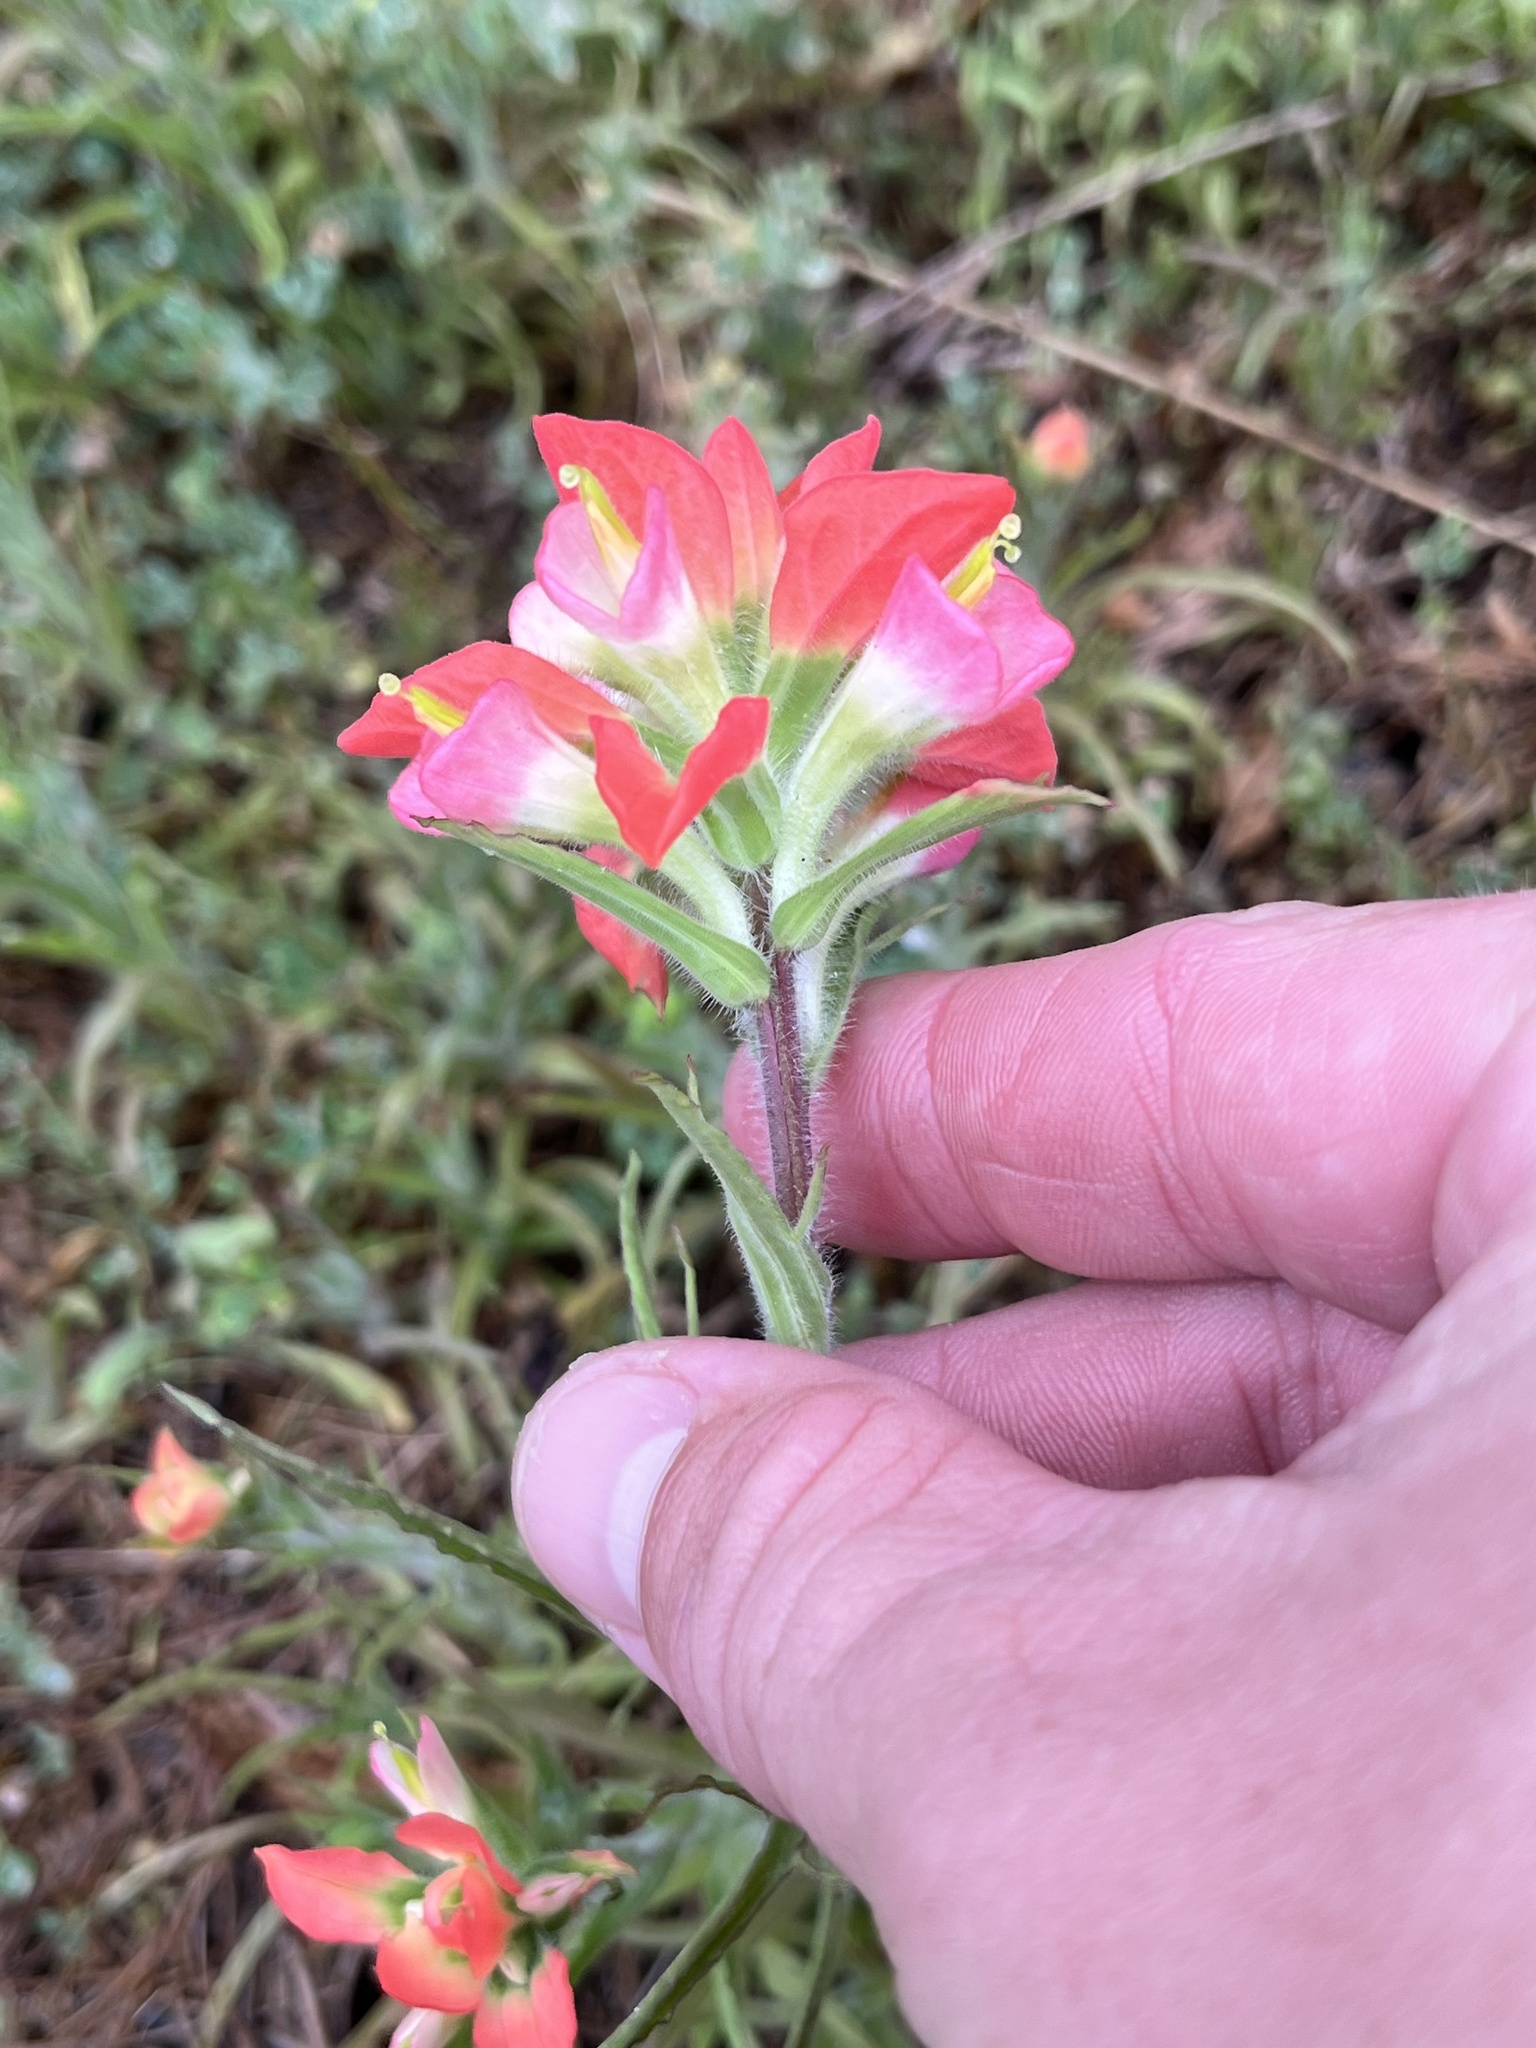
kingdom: Plantae
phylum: Tracheophyta
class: Magnoliopsida
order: Lamiales
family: Orobanchaceae
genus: Castilleja
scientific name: Castilleja indivisa
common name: Texas paintbrush
